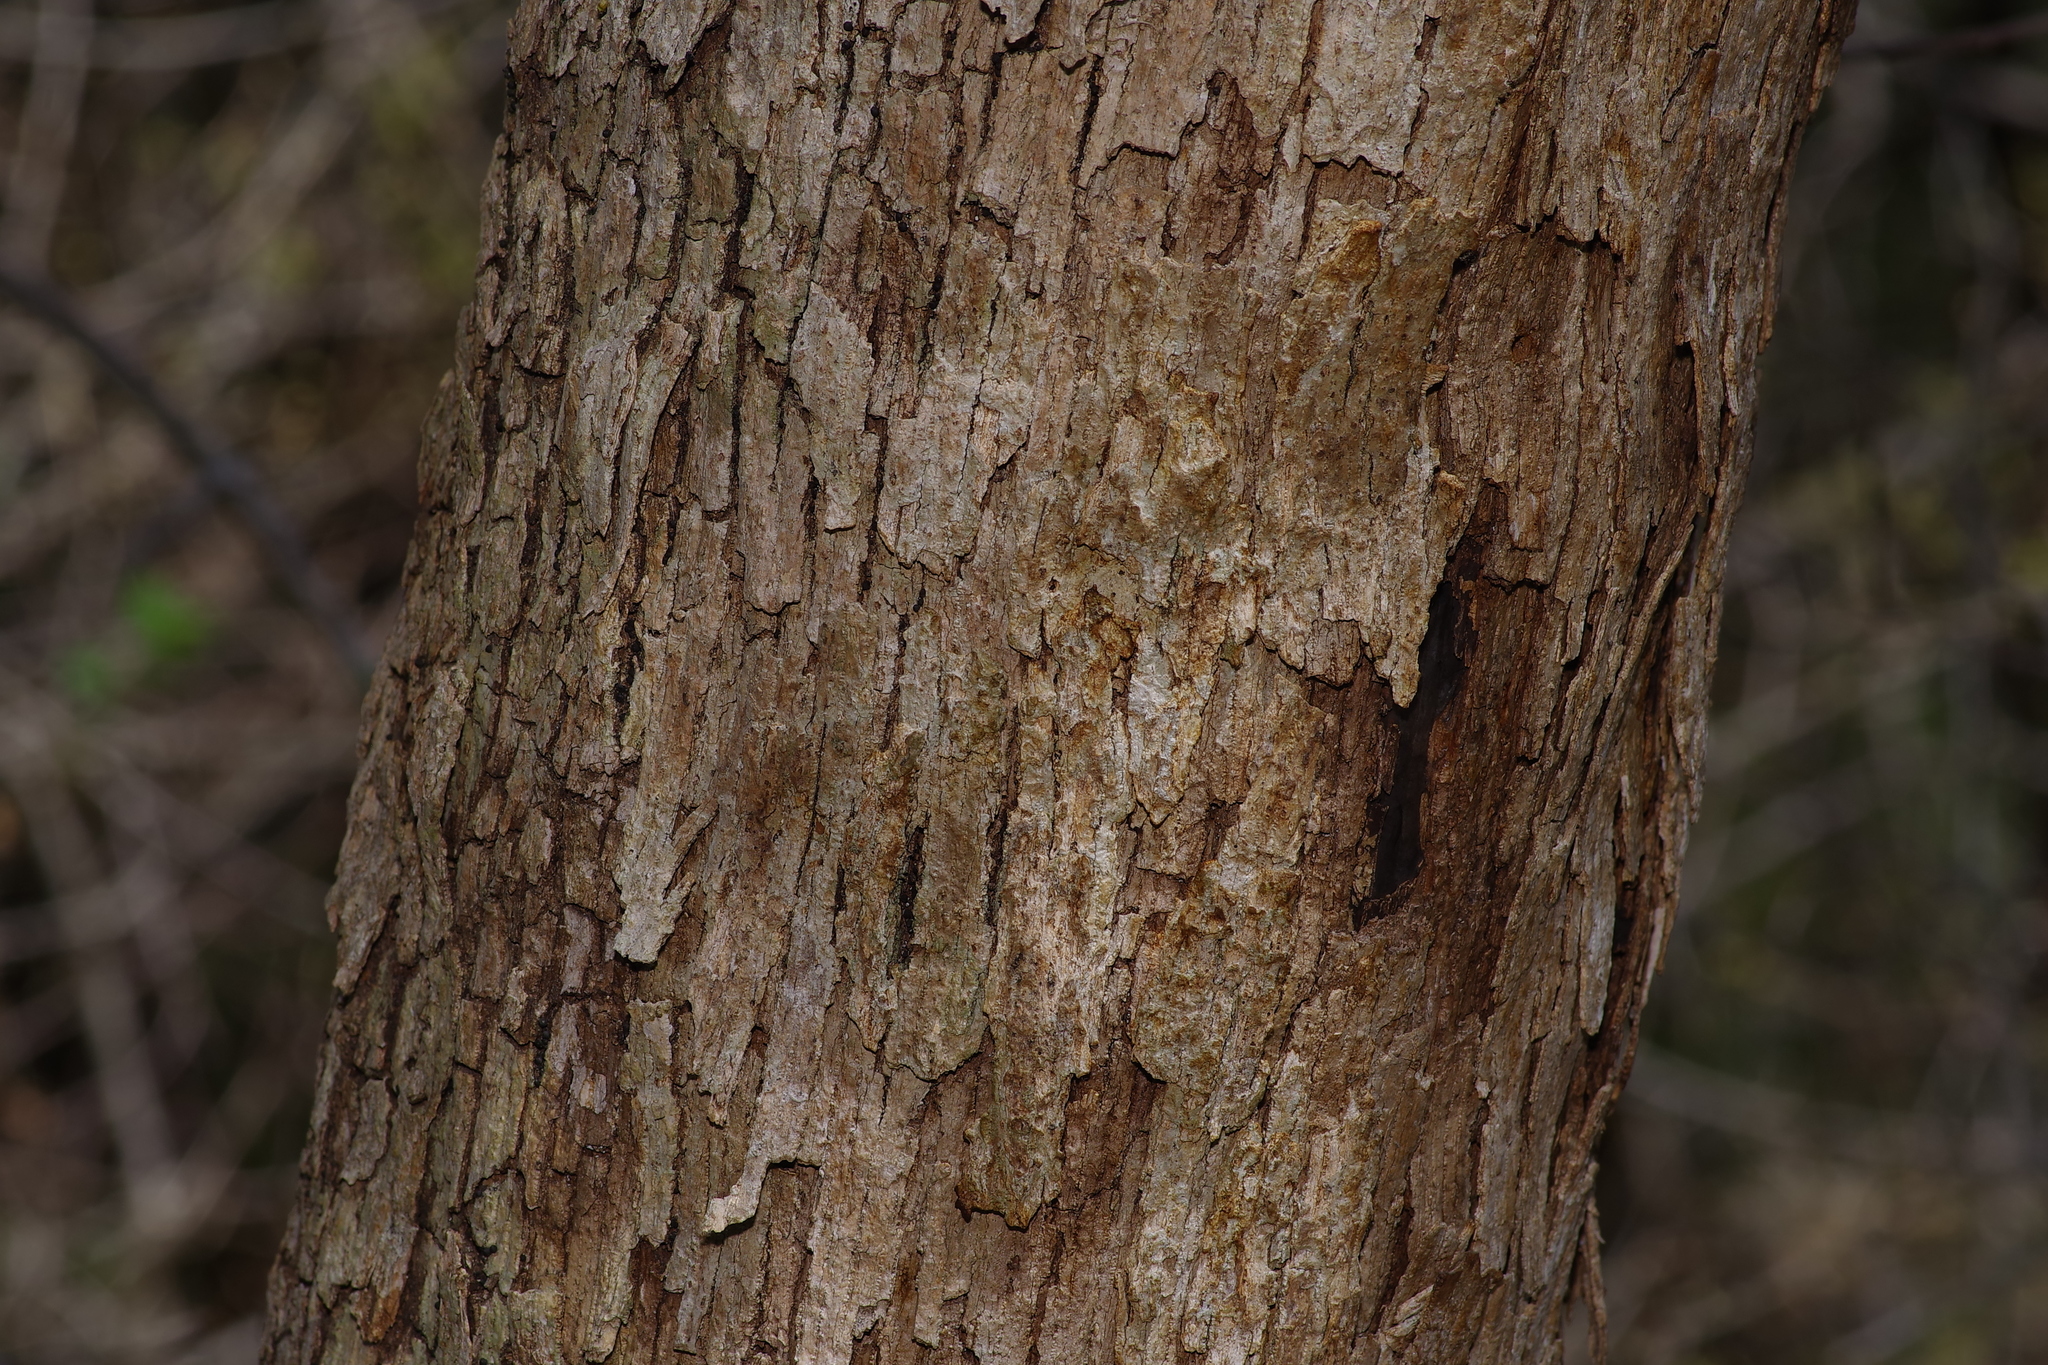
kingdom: Plantae
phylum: Tracheophyta
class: Magnoliopsida
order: Fagales
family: Fagaceae
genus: Quercus
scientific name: Quercus sinuata
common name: Durand oak
